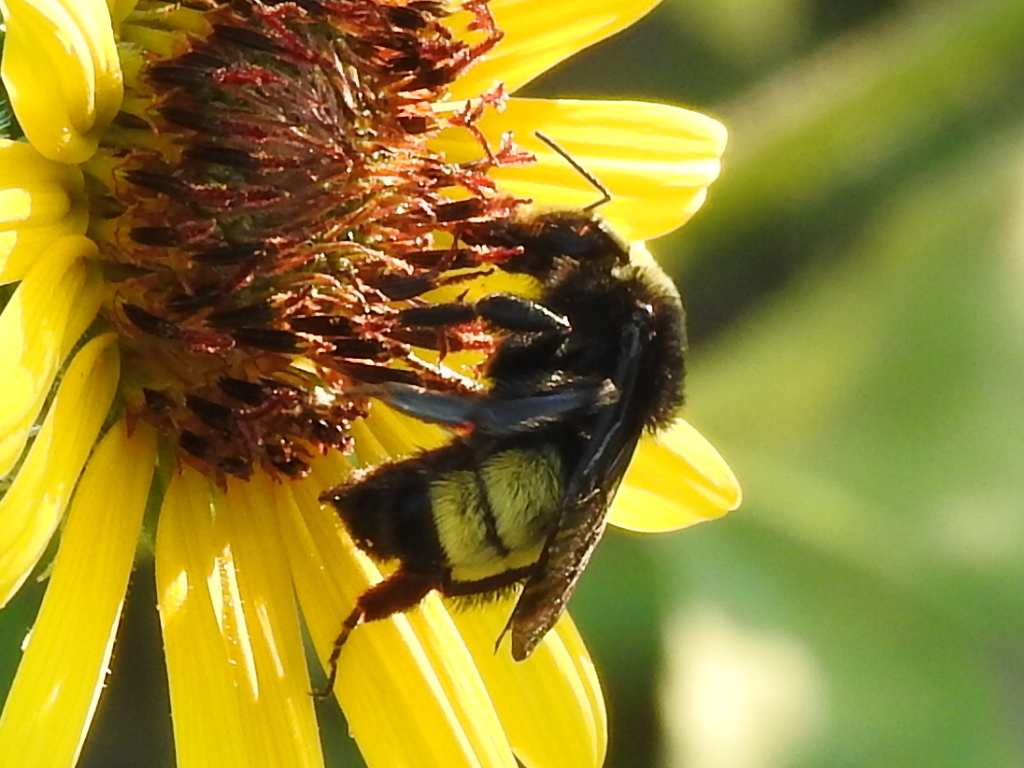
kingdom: Animalia
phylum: Arthropoda
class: Insecta
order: Hymenoptera
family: Apidae
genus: Bombus
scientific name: Bombus pensylvanicus
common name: Bumble bee
